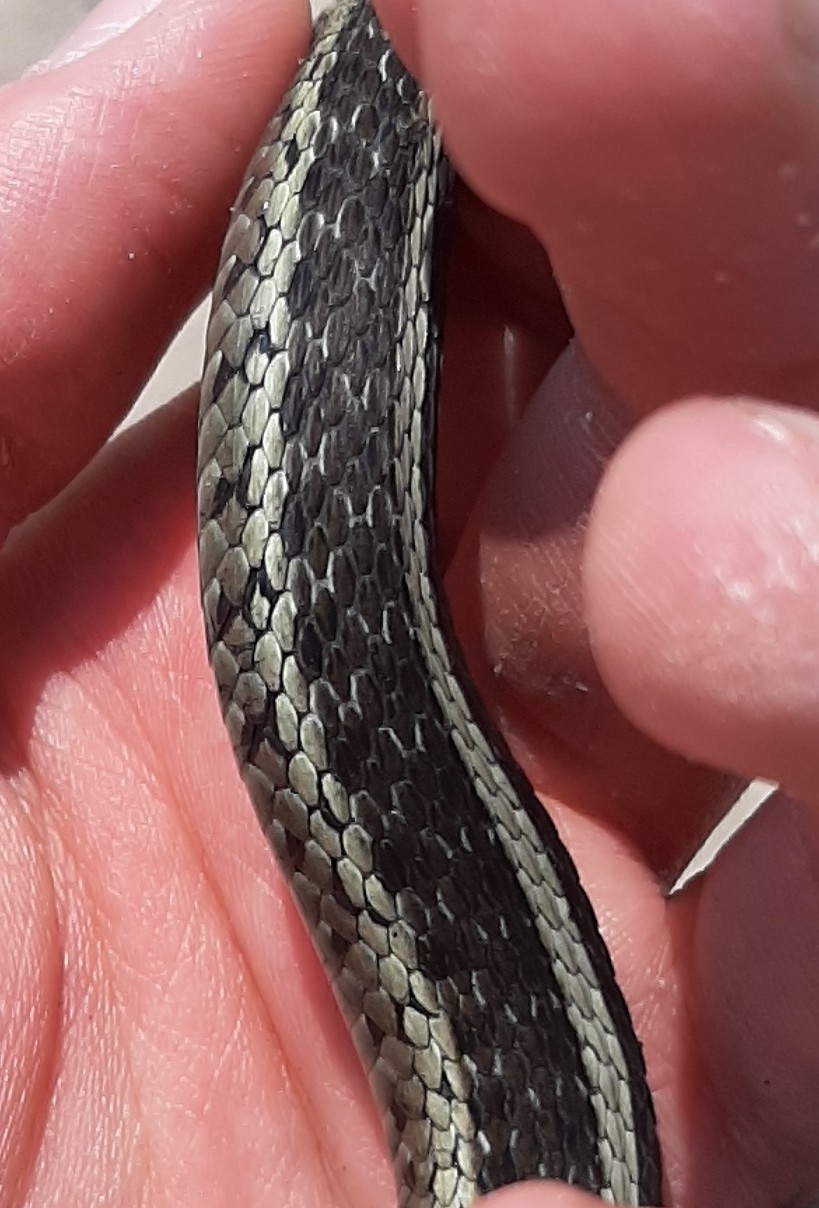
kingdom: Animalia
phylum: Chordata
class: Squamata
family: Colubridae
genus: Thamnophis
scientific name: Thamnophis sirtalis
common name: Common garter snake
